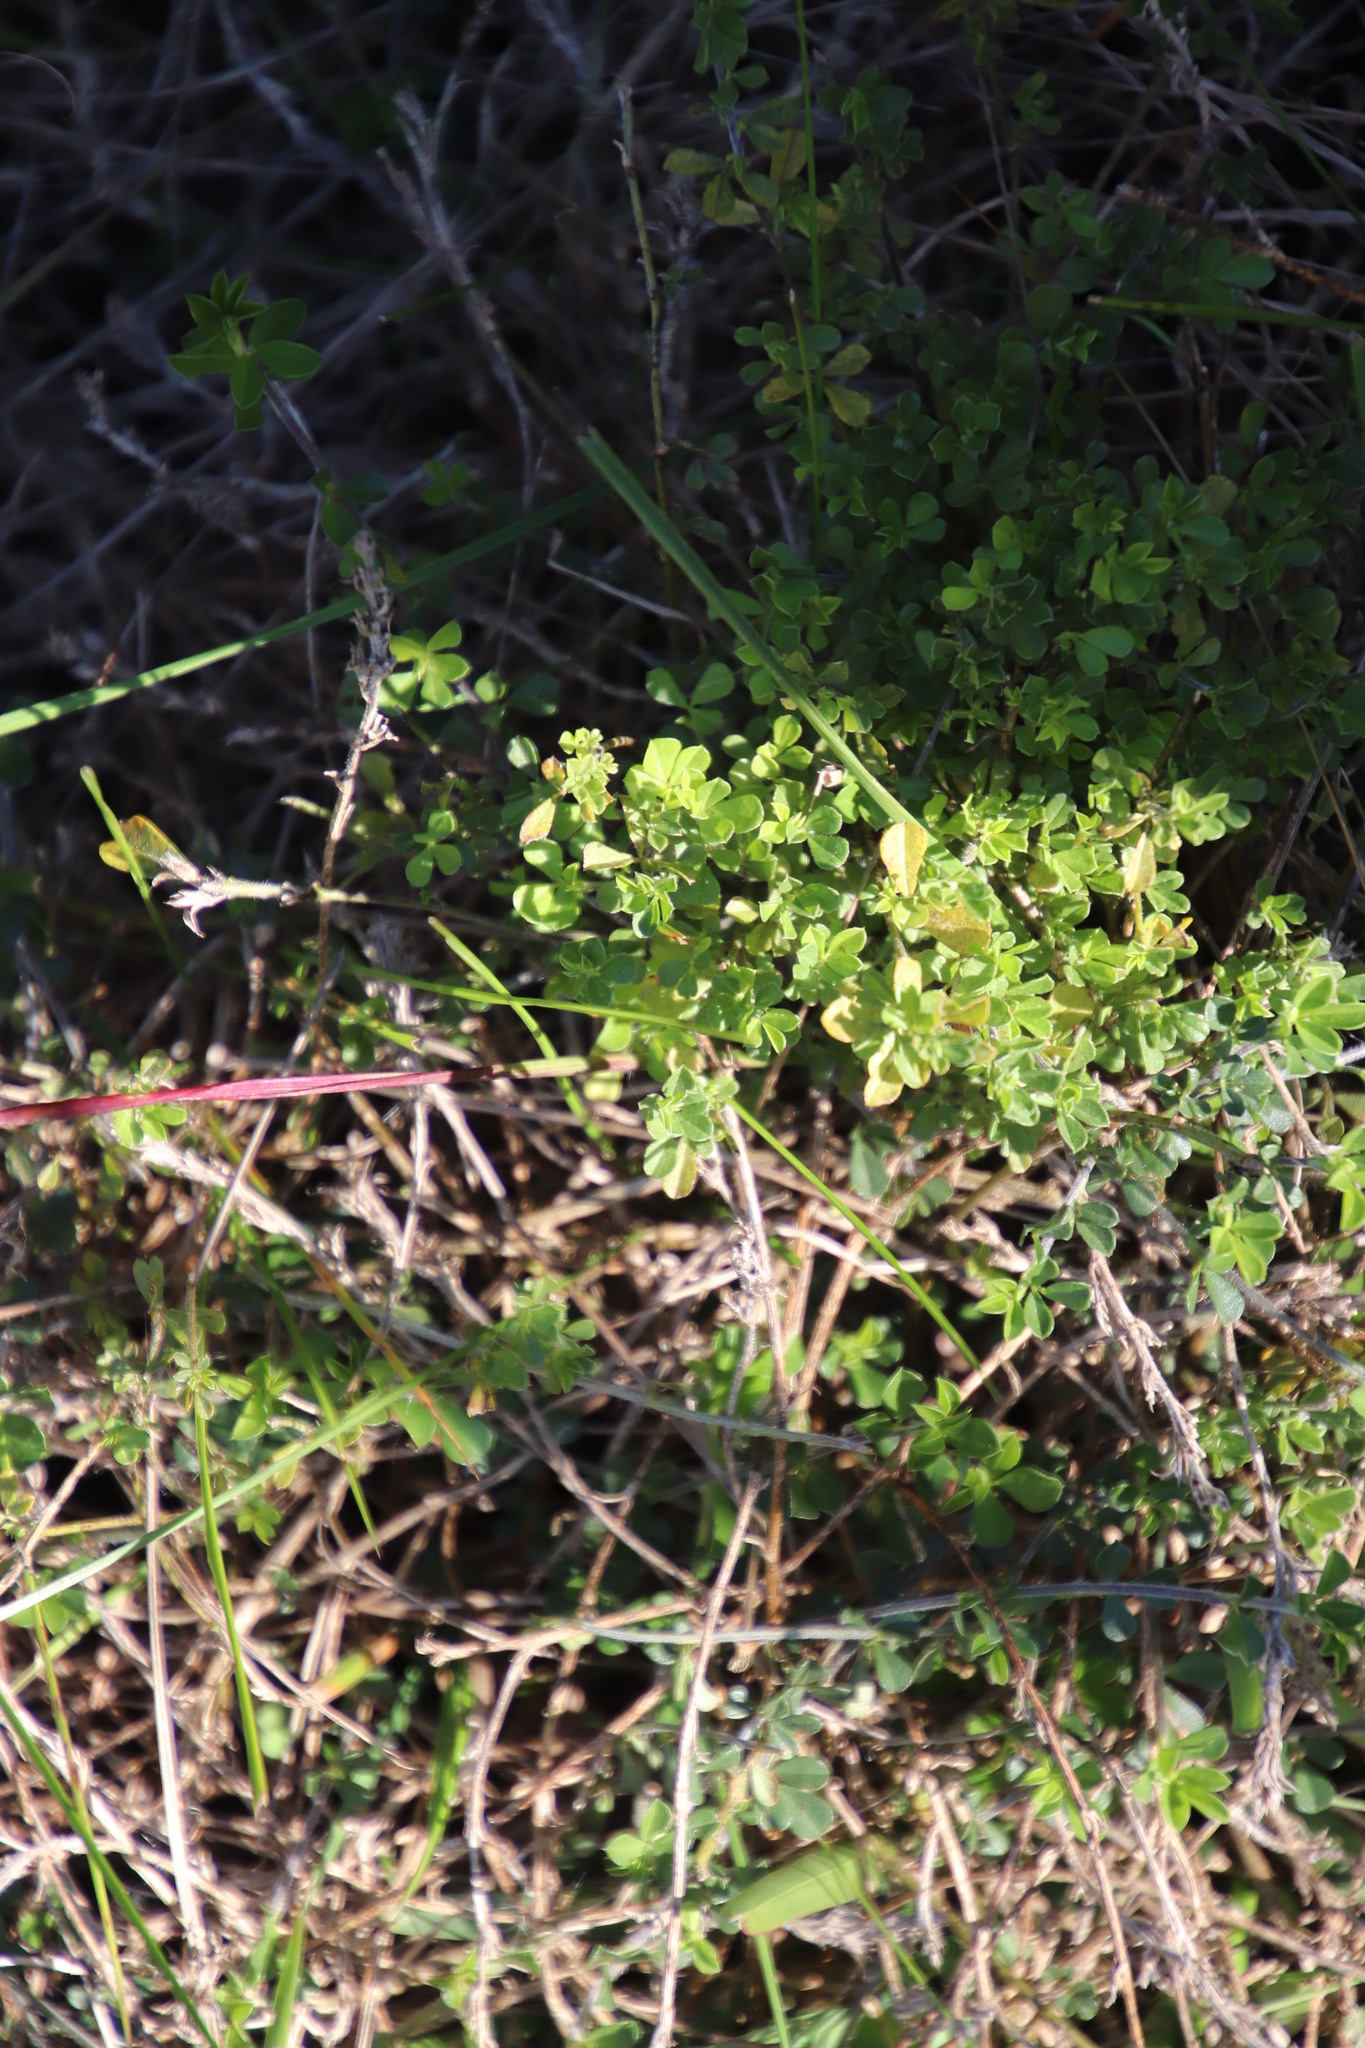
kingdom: Plantae
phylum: Tracheophyta
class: Magnoliopsida
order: Fabales
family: Fabaceae
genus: Psoralea
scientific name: Psoralea
